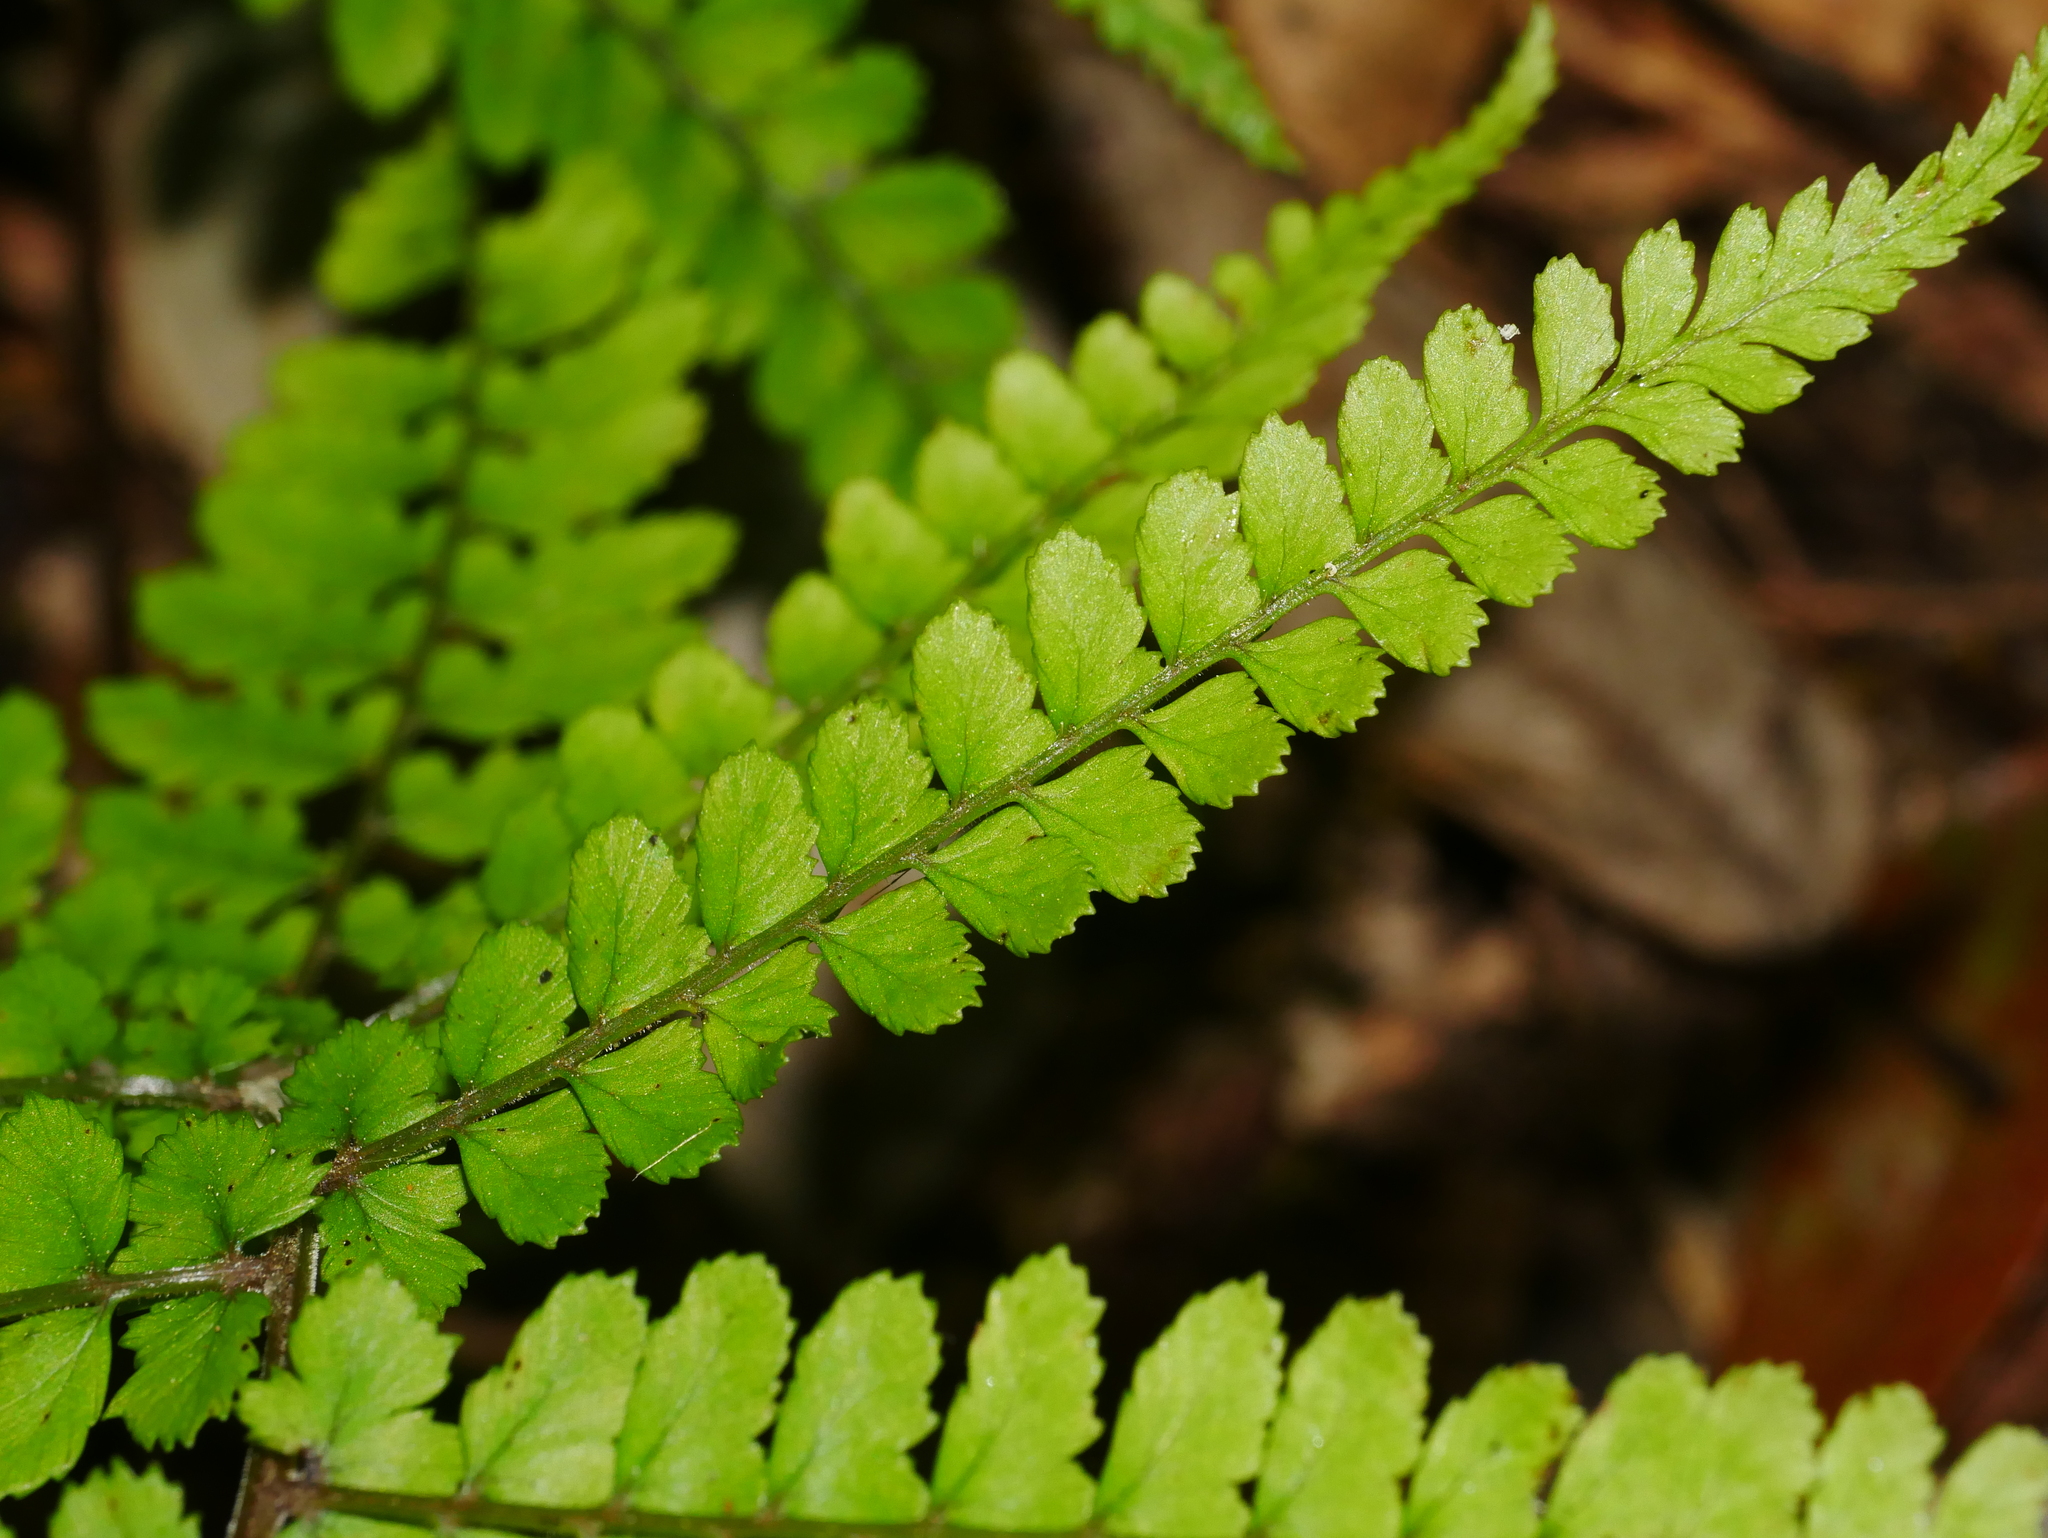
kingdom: Plantae
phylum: Tracheophyta
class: Polypodiopsida
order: Polypodiales
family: Athyriaceae
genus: Athyrium
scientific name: Athyrium subrigescens
